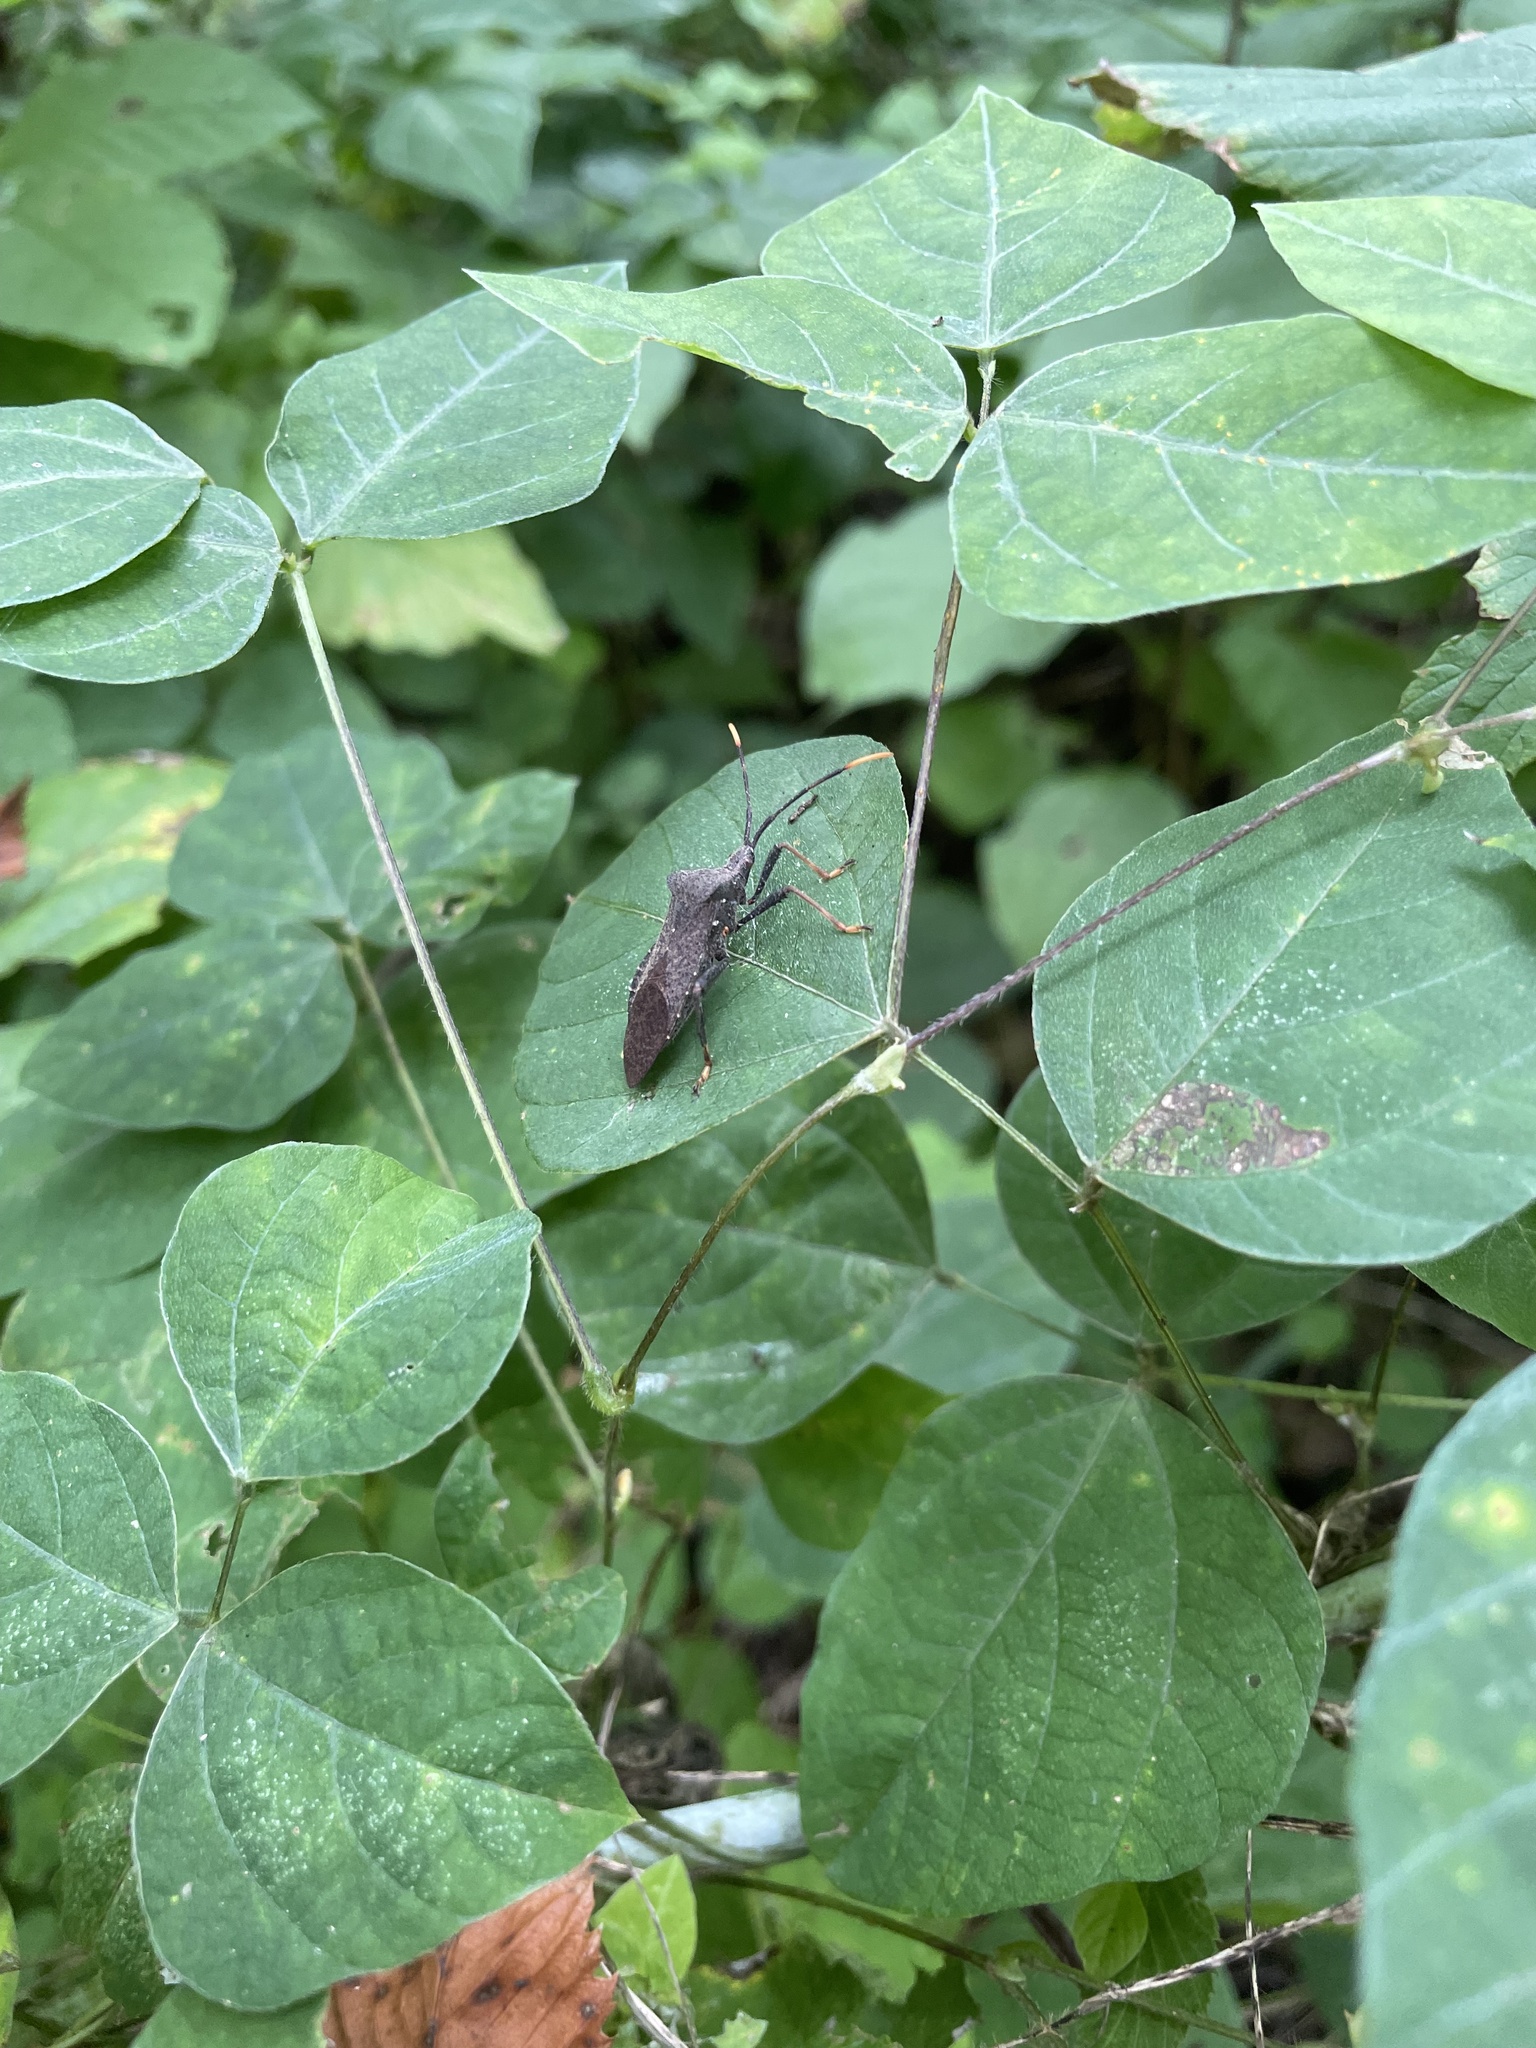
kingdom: Animalia
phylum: Arthropoda
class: Insecta
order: Hemiptera
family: Coreidae
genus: Acanthocephala
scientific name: Acanthocephala terminalis
